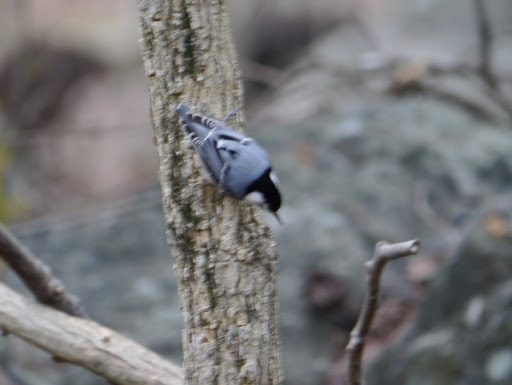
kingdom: Animalia
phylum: Chordata
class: Aves
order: Passeriformes
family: Sittidae
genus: Sitta
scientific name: Sitta carolinensis
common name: White-breasted nuthatch
